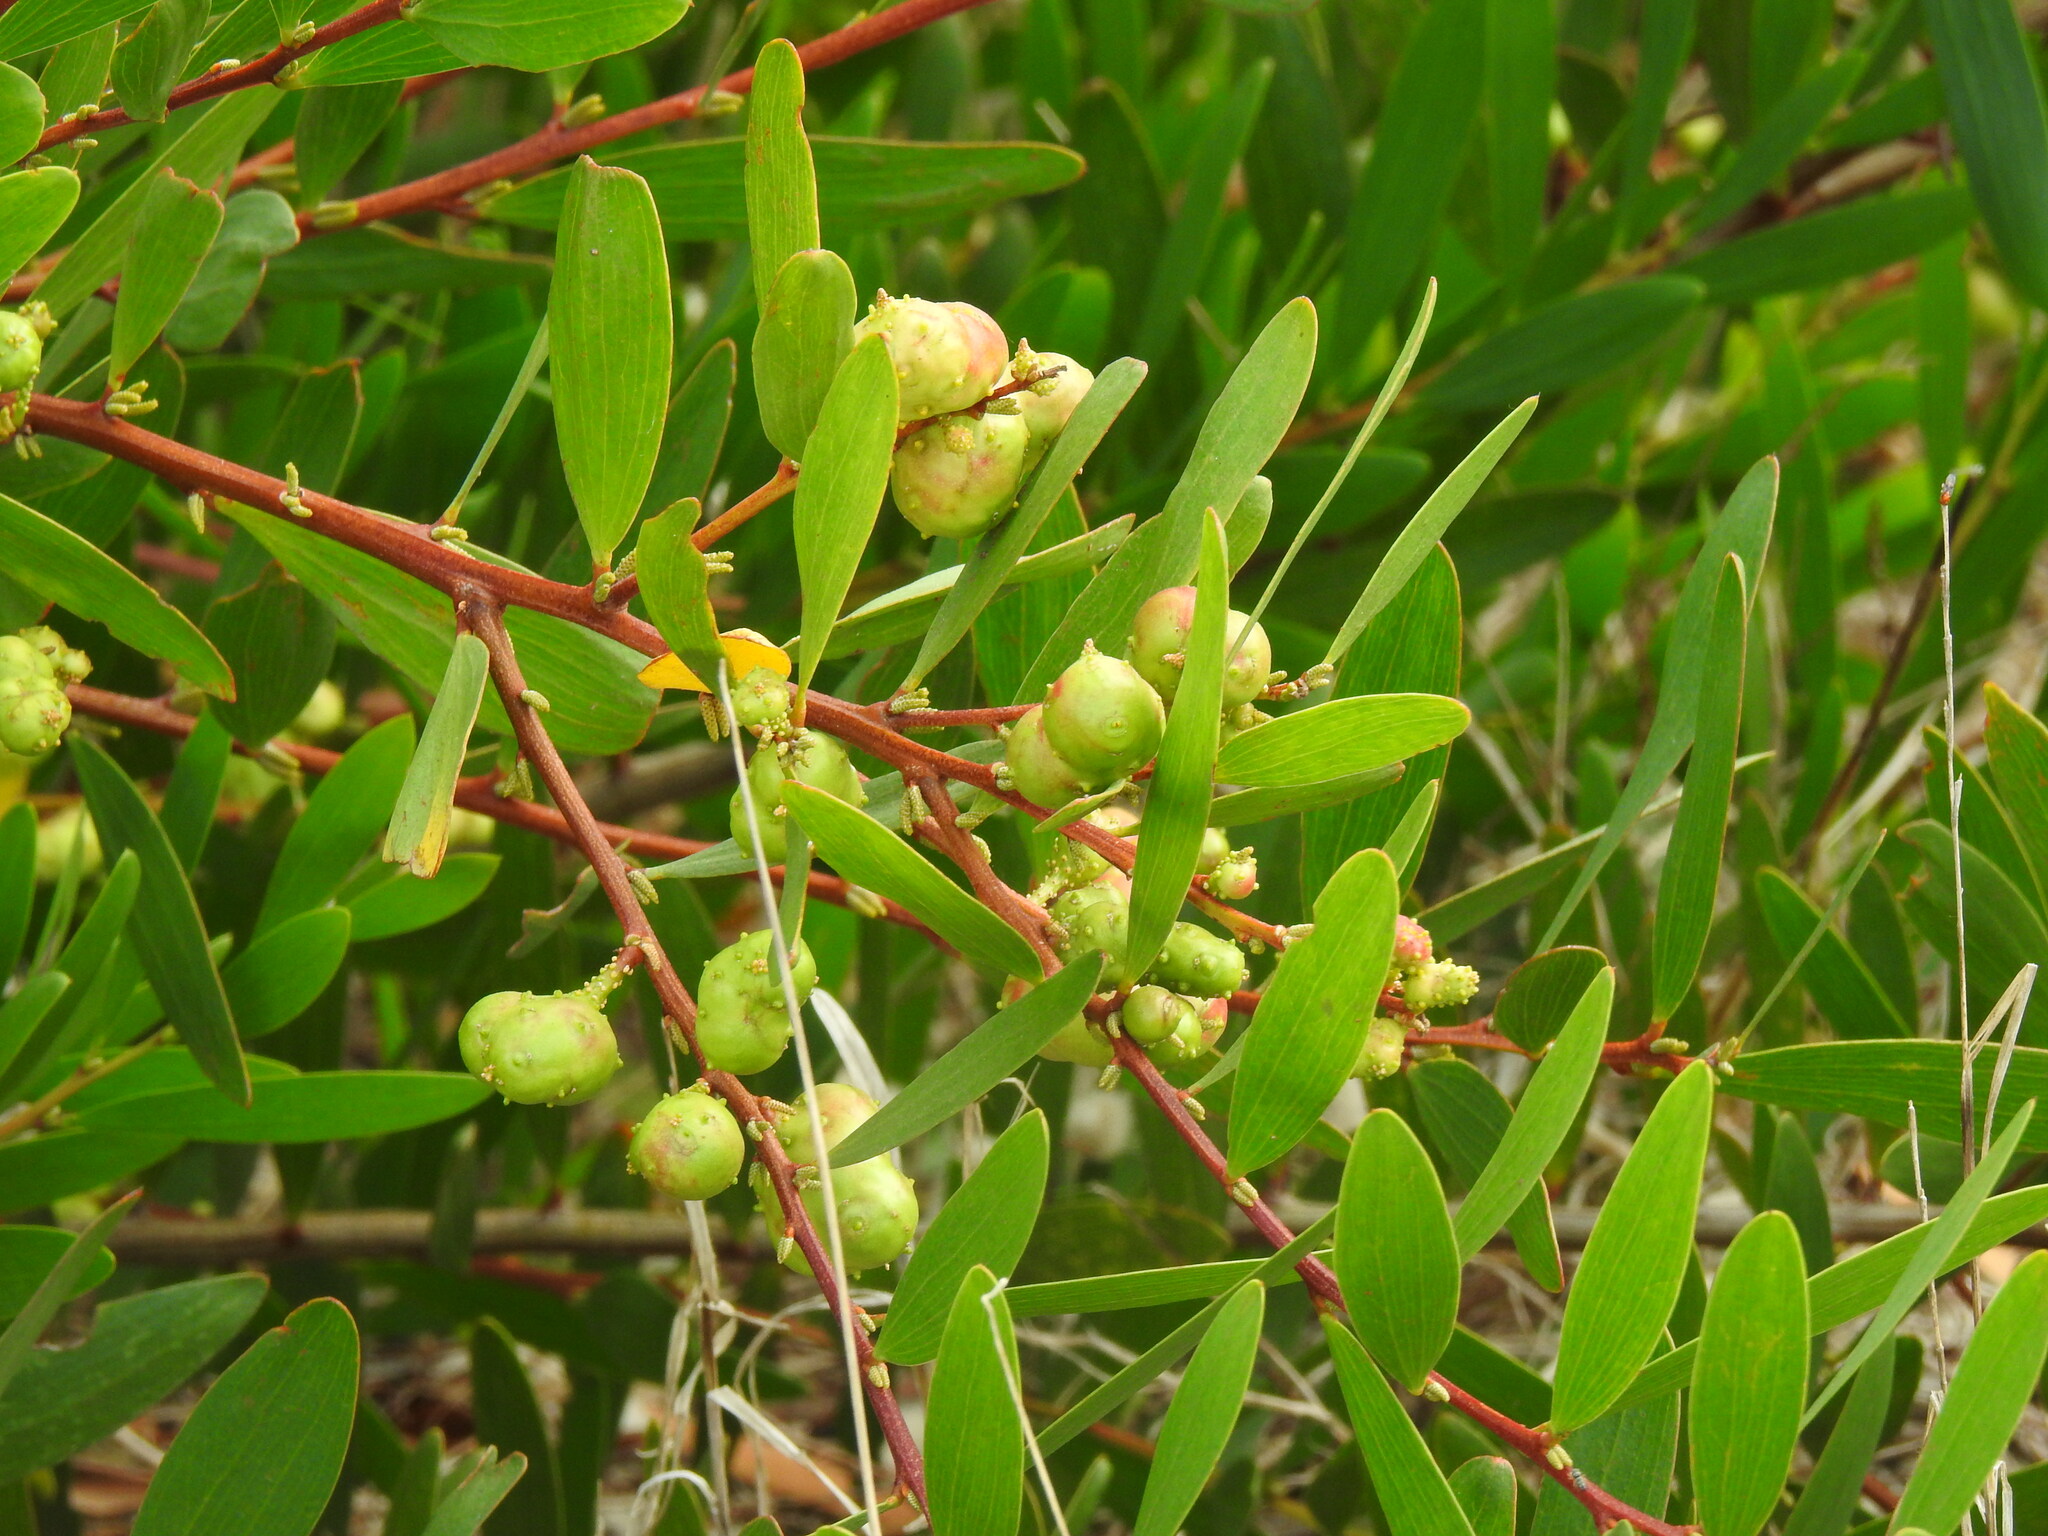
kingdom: Animalia
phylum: Arthropoda
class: Insecta
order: Hymenoptera
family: Pteromalidae
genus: Trichilogaster
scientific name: Trichilogaster acaciaelongifoliae
